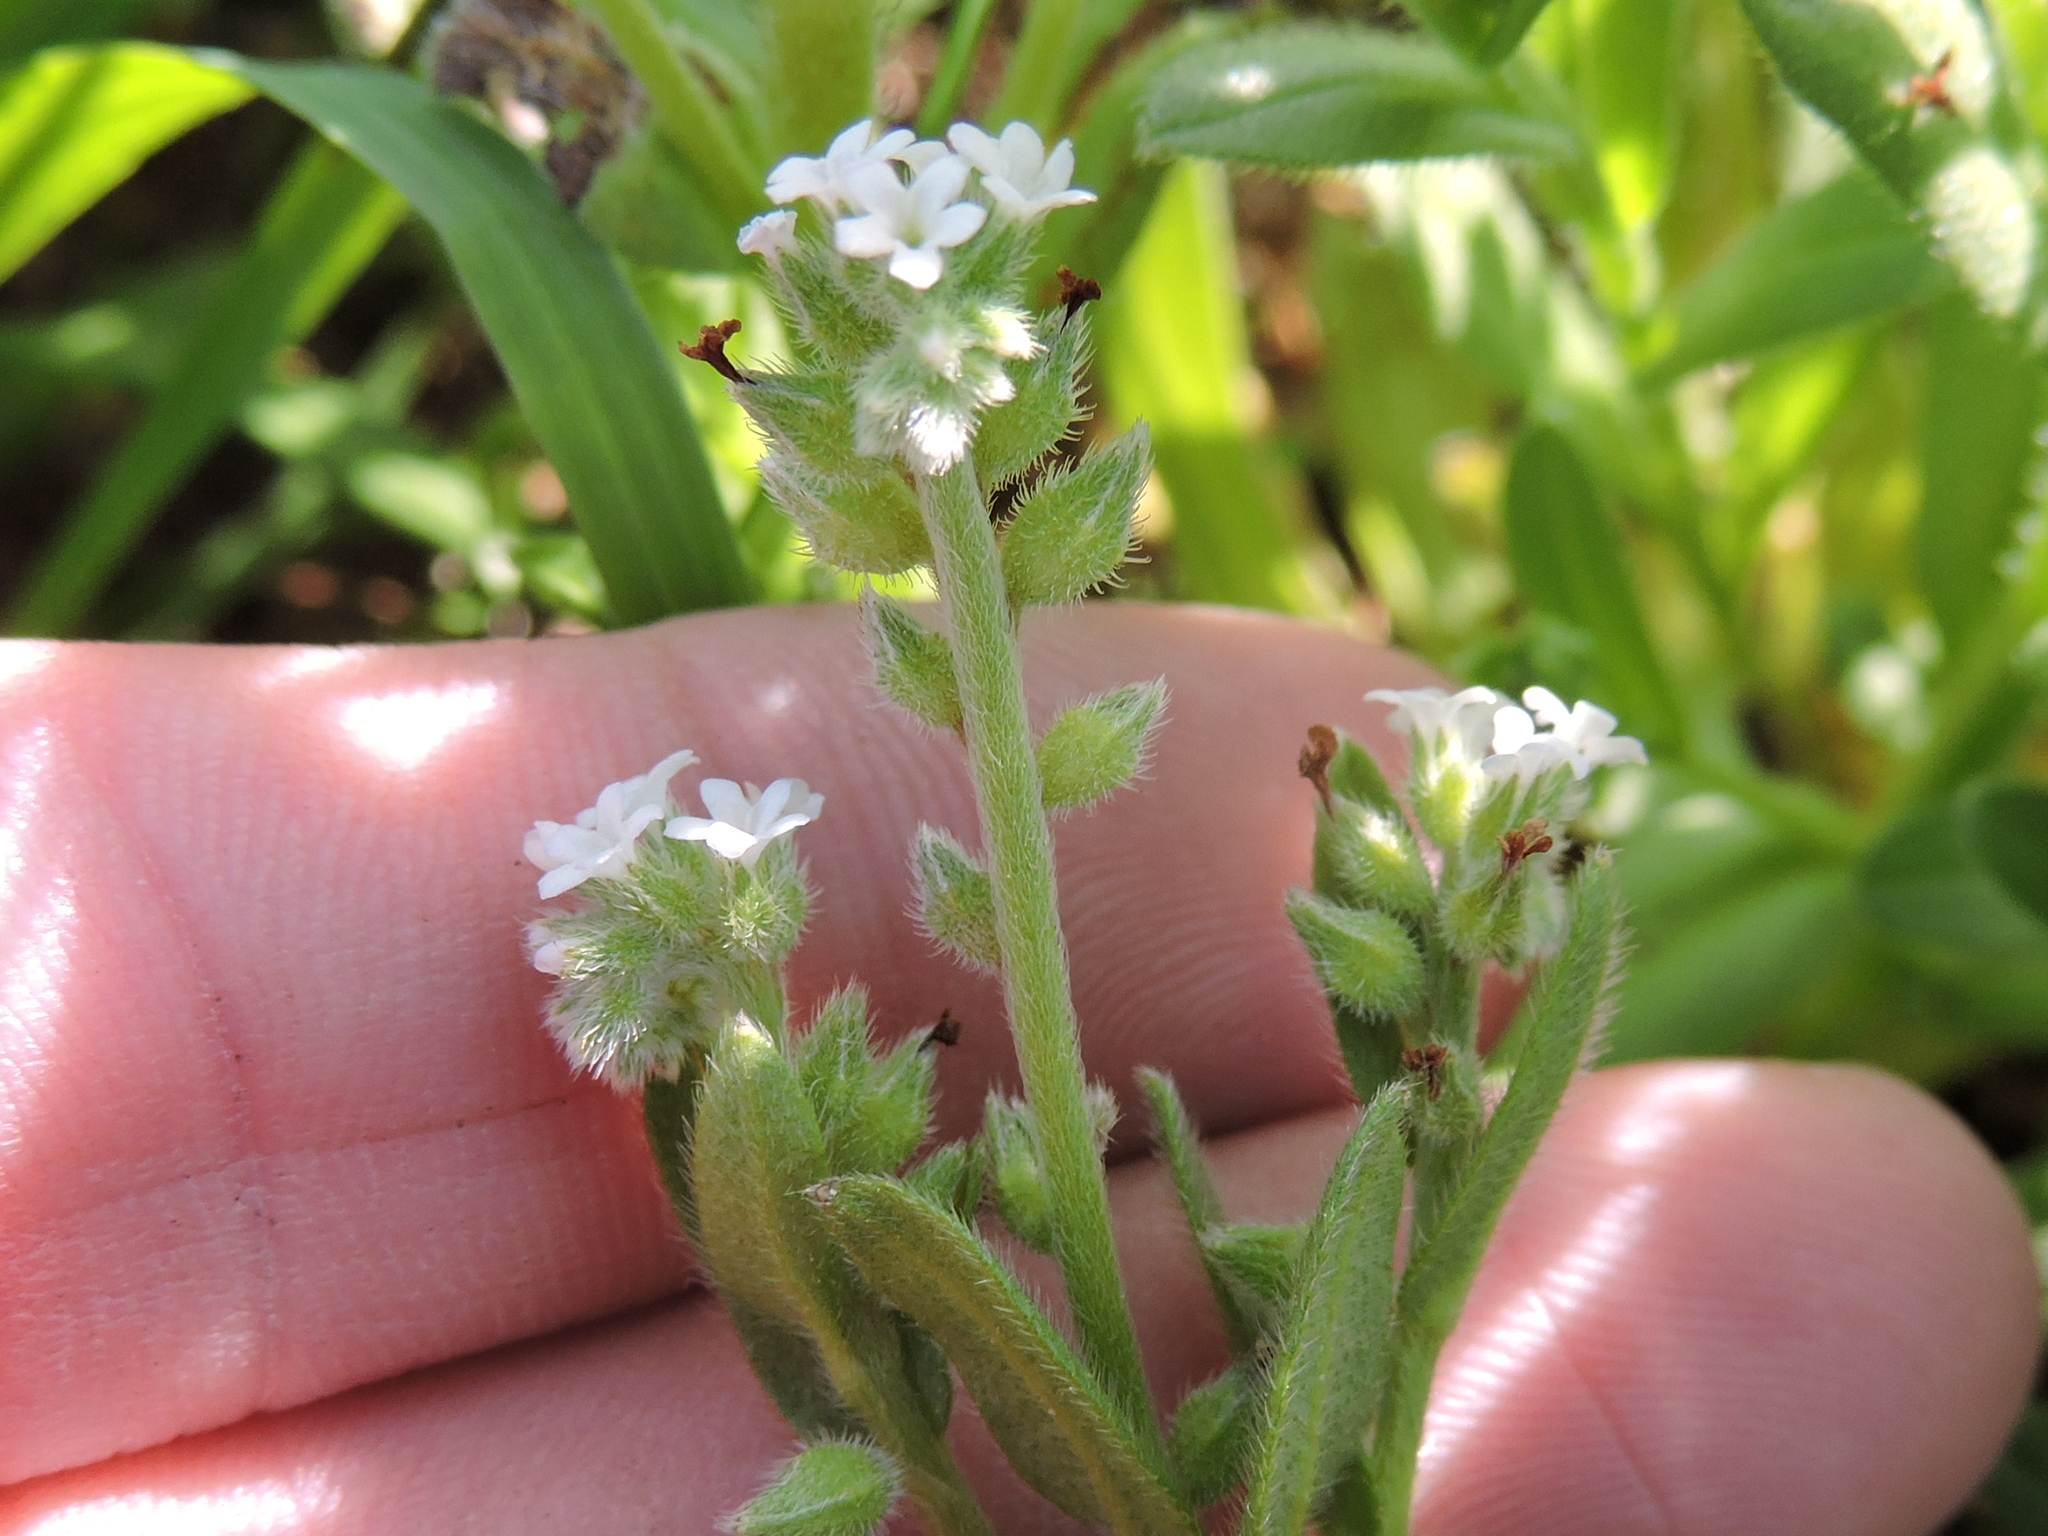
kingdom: Plantae
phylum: Tracheophyta
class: Magnoliopsida
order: Boraginales
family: Boraginaceae
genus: Myosotis
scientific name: Myosotis verna
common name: Early forget-me-not
